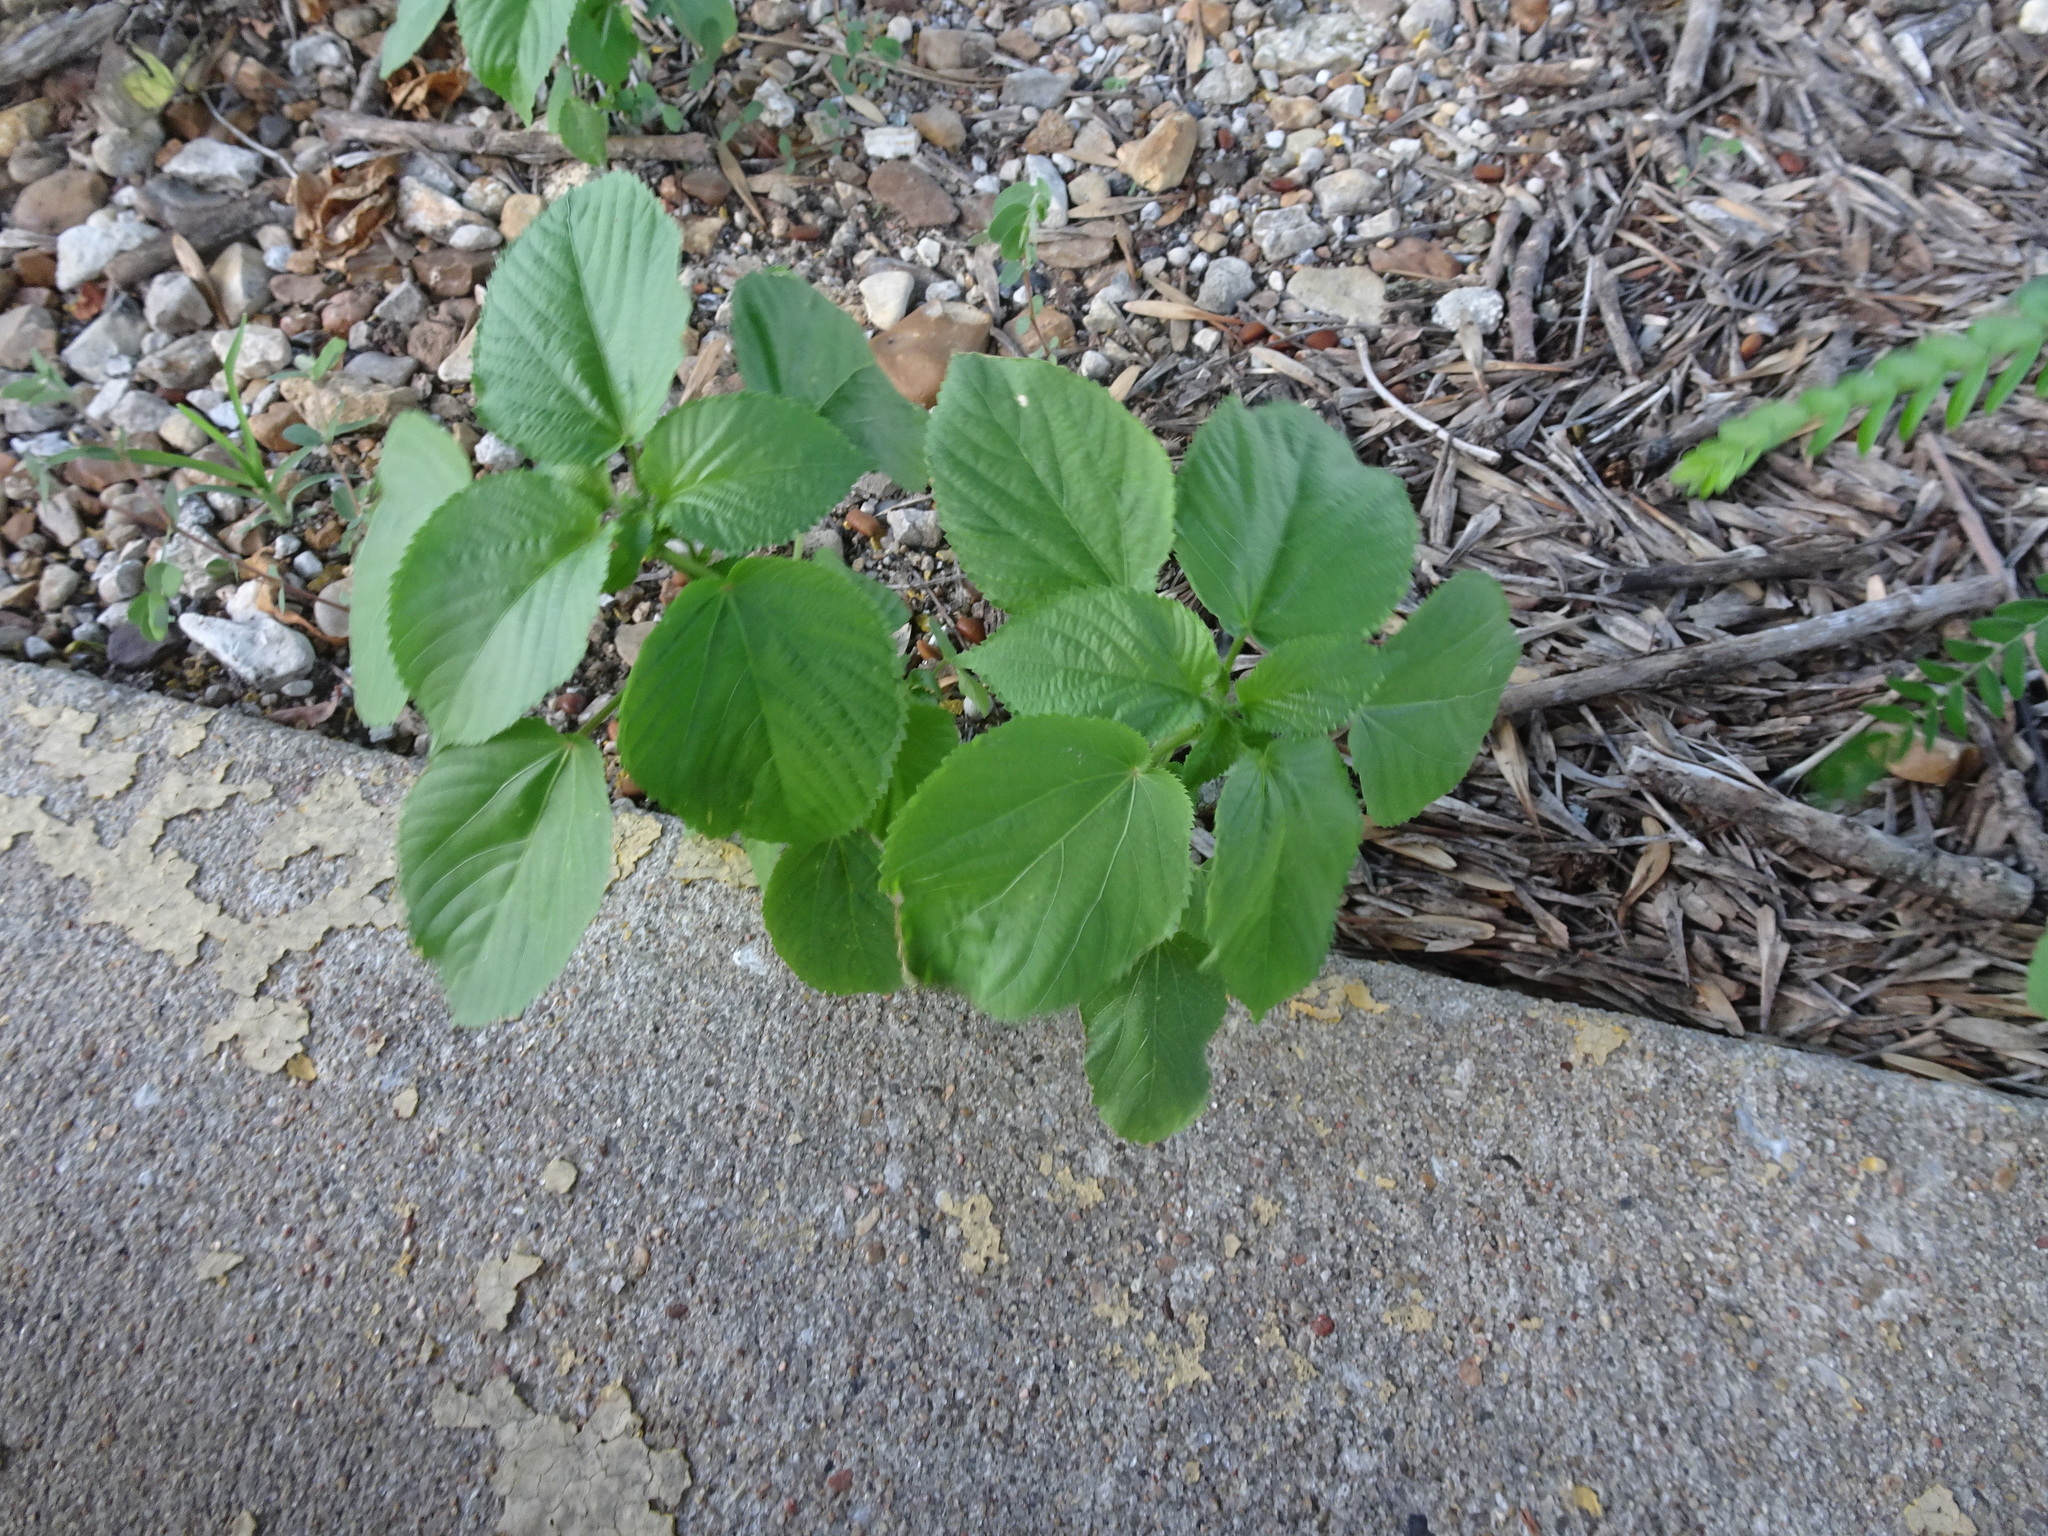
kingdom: Plantae
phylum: Tracheophyta
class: Magnoliopsida
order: Malpighiales
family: Euphorbiaceae
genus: Acalypha
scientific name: Acalypha ostryifolia
